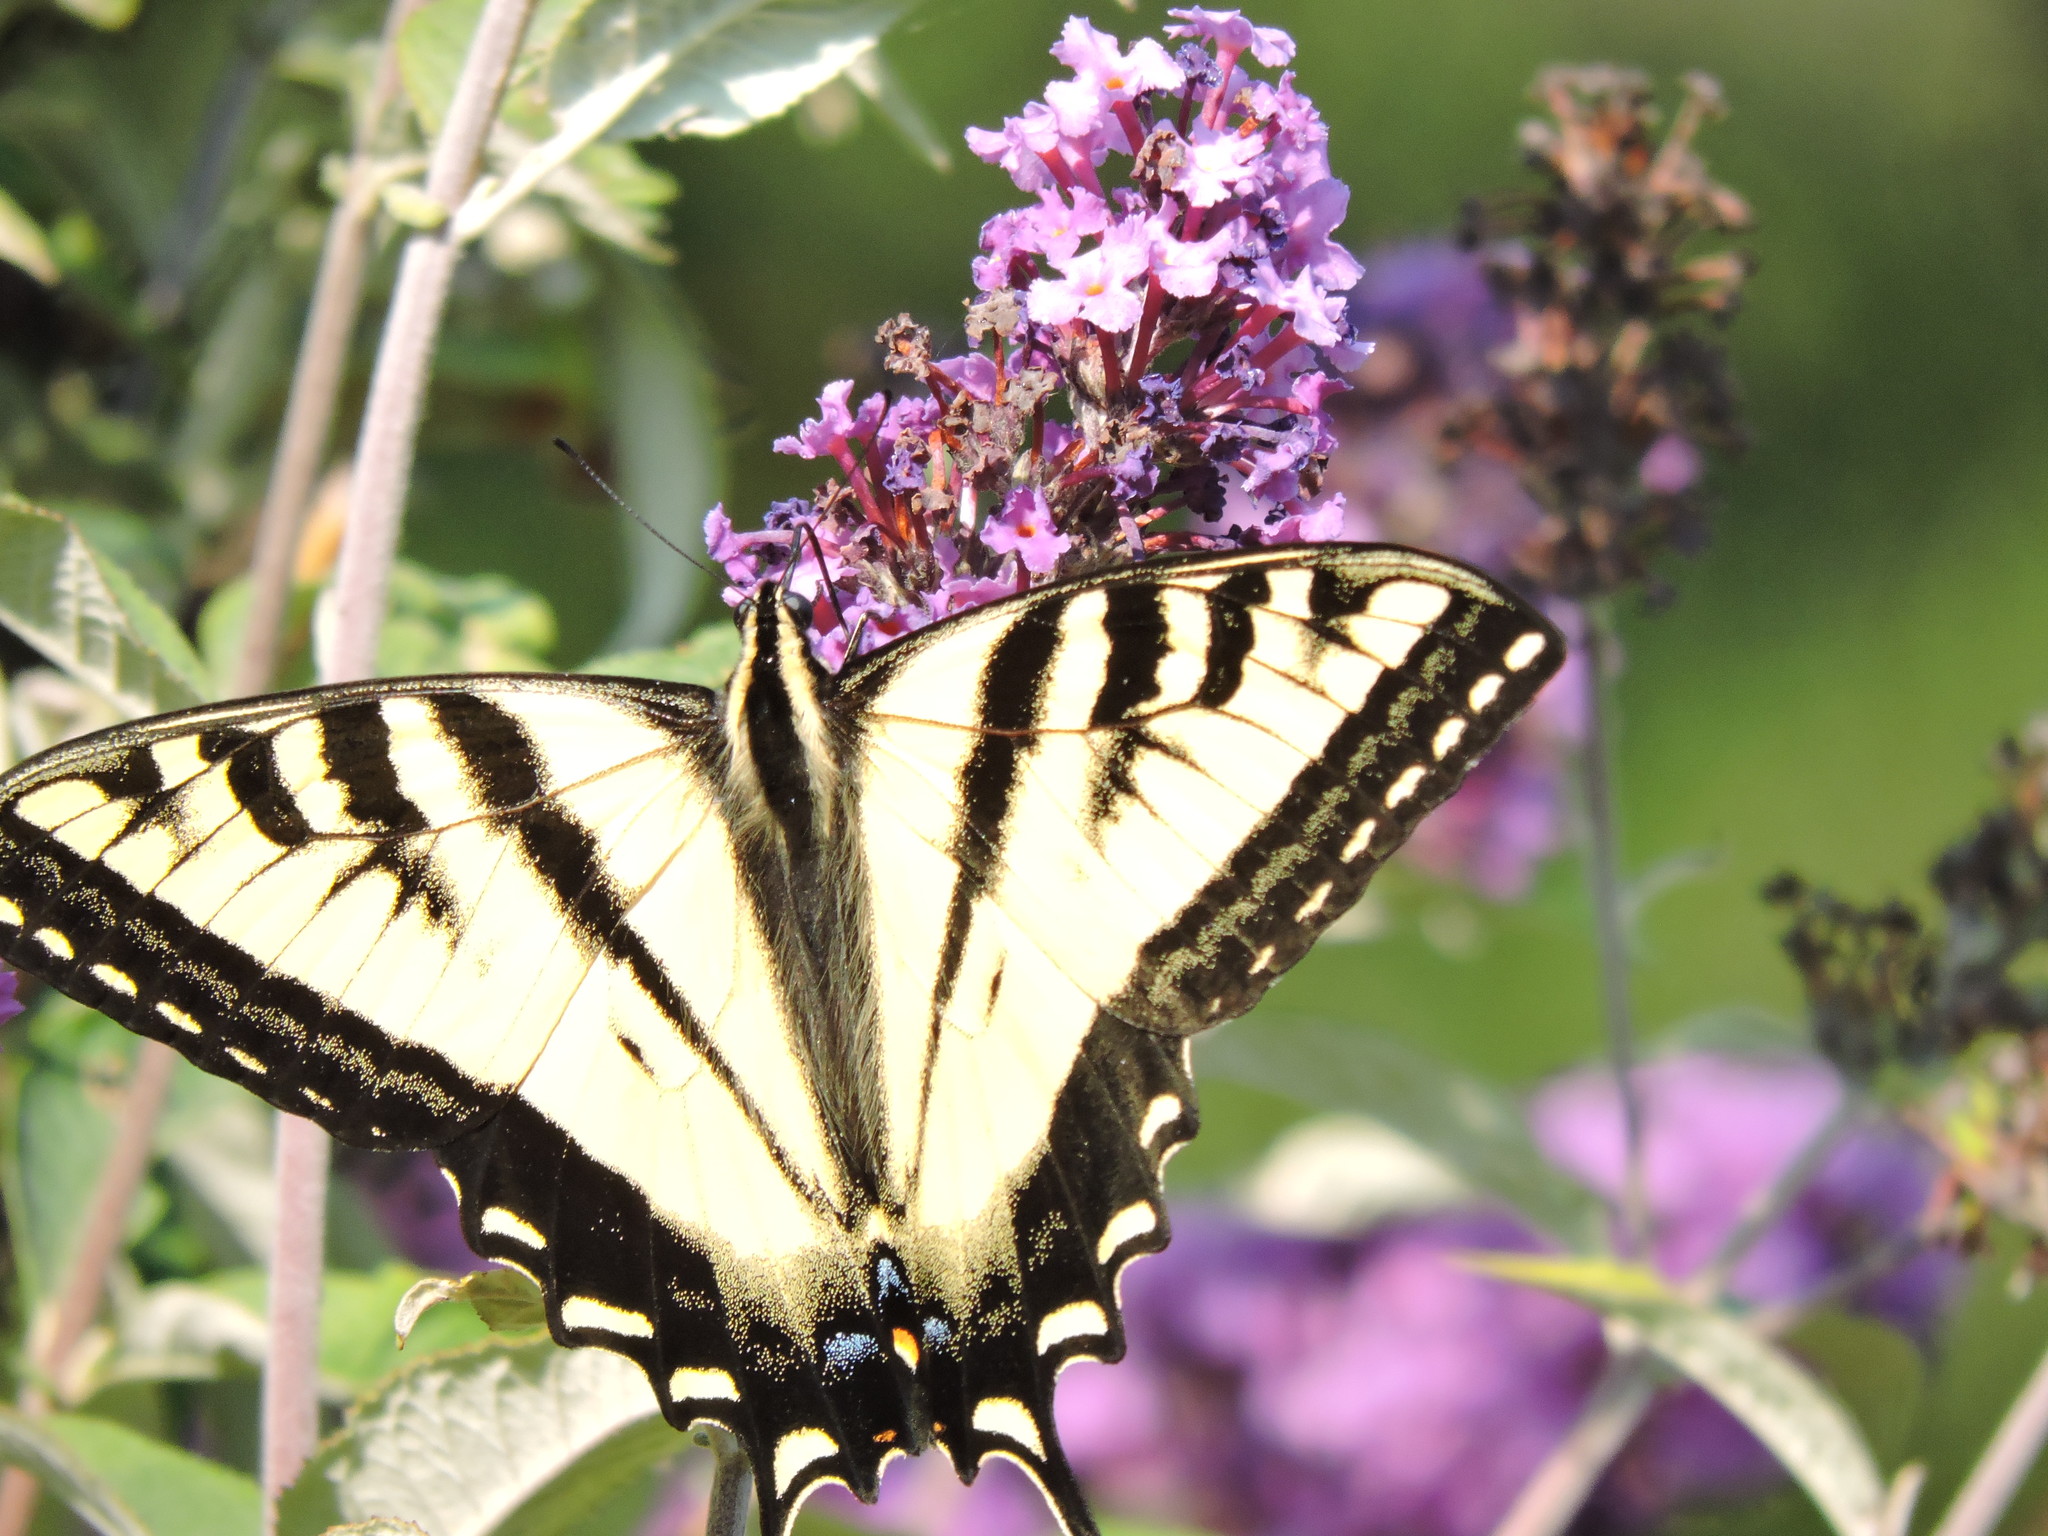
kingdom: Animalia
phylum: Arthropoda
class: Insecta
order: Lepidoptera
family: Papilionidae
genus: Papilio
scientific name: Papilio rutulus
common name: Western tiger swallowtail
